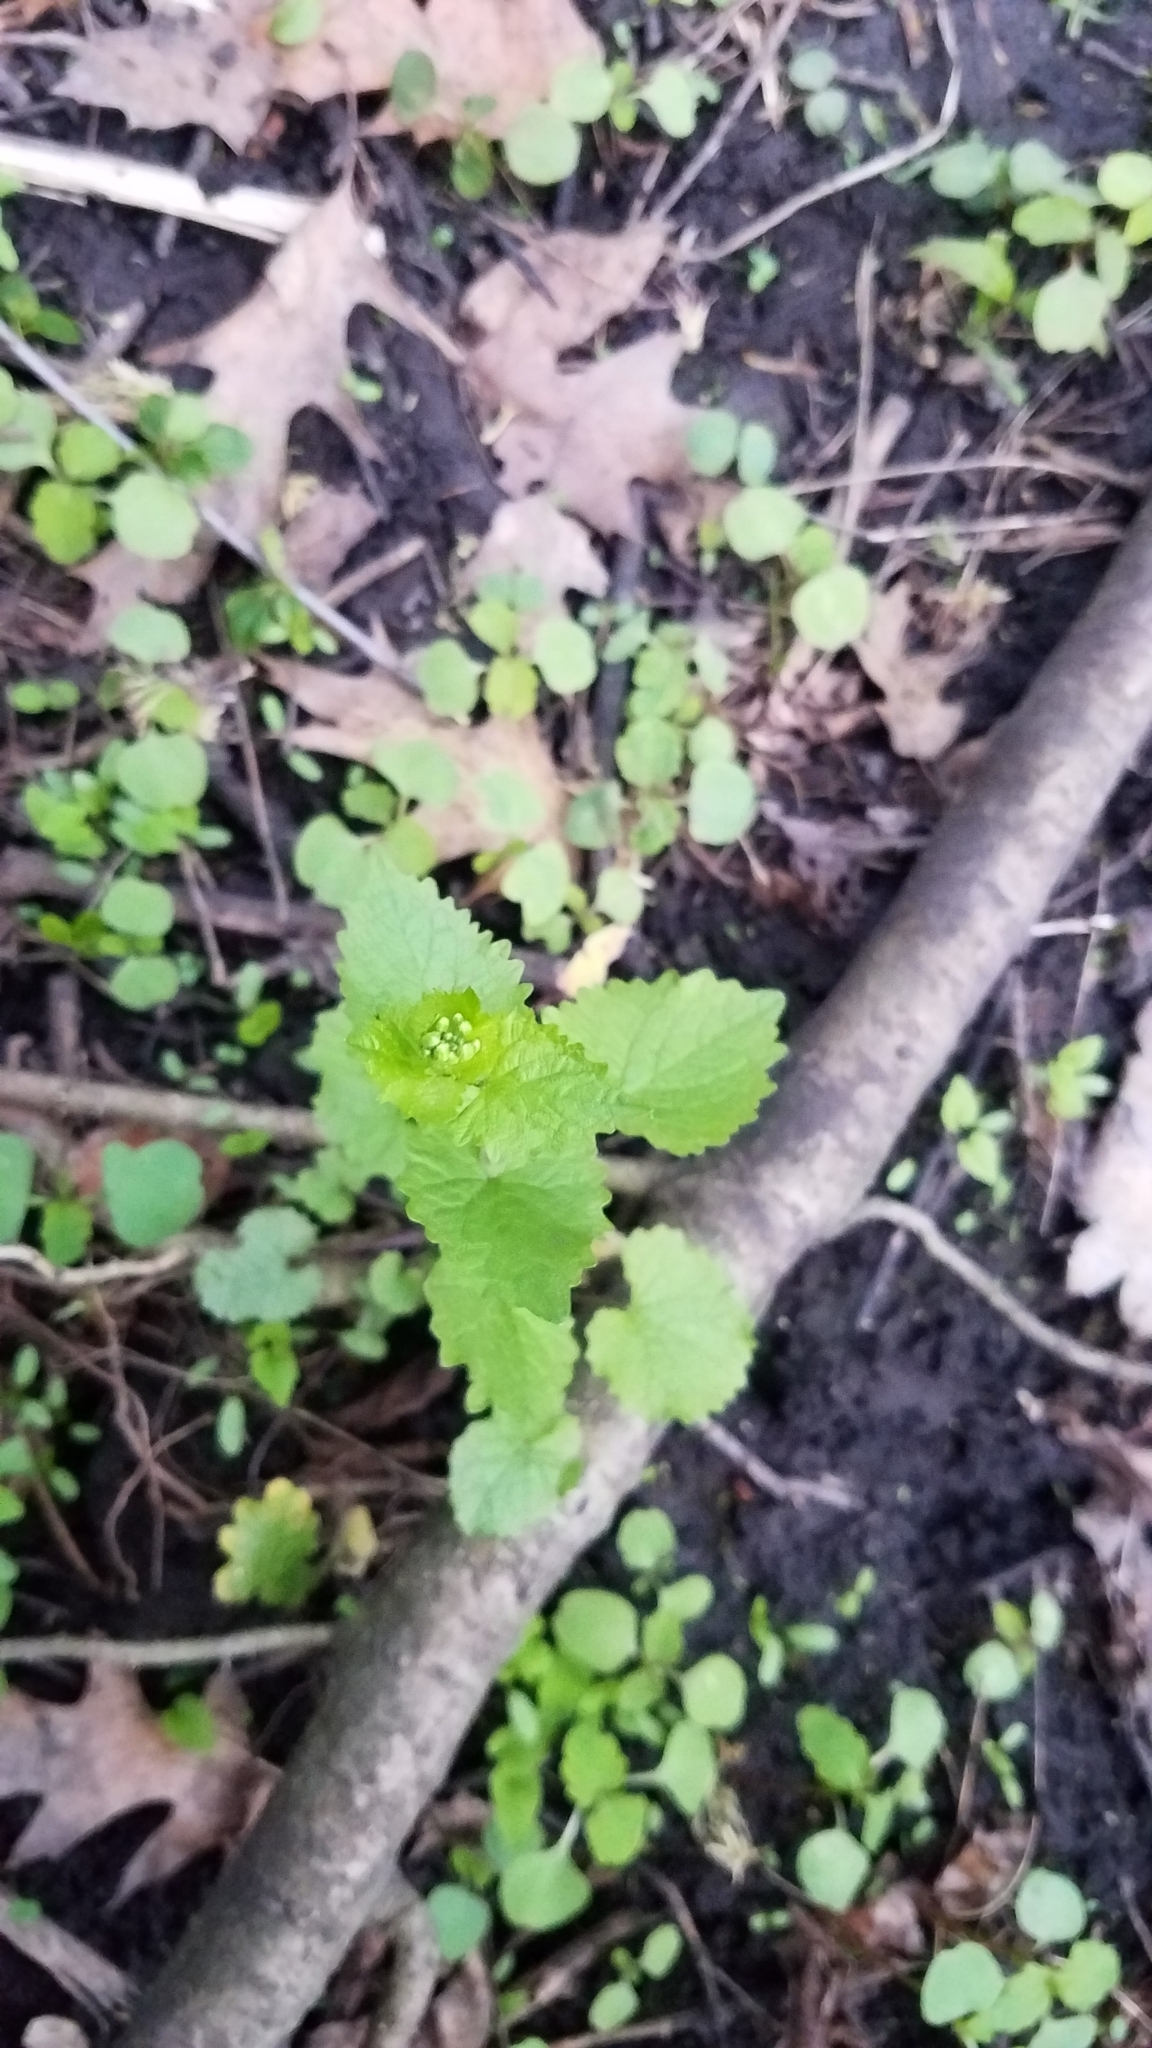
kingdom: Plantae
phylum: Tracheophyta
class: Magnoliopsida
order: Brassicales
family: Brassicaceae
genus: Alliaria
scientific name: Alliaria petiolata
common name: Garlic mustard
